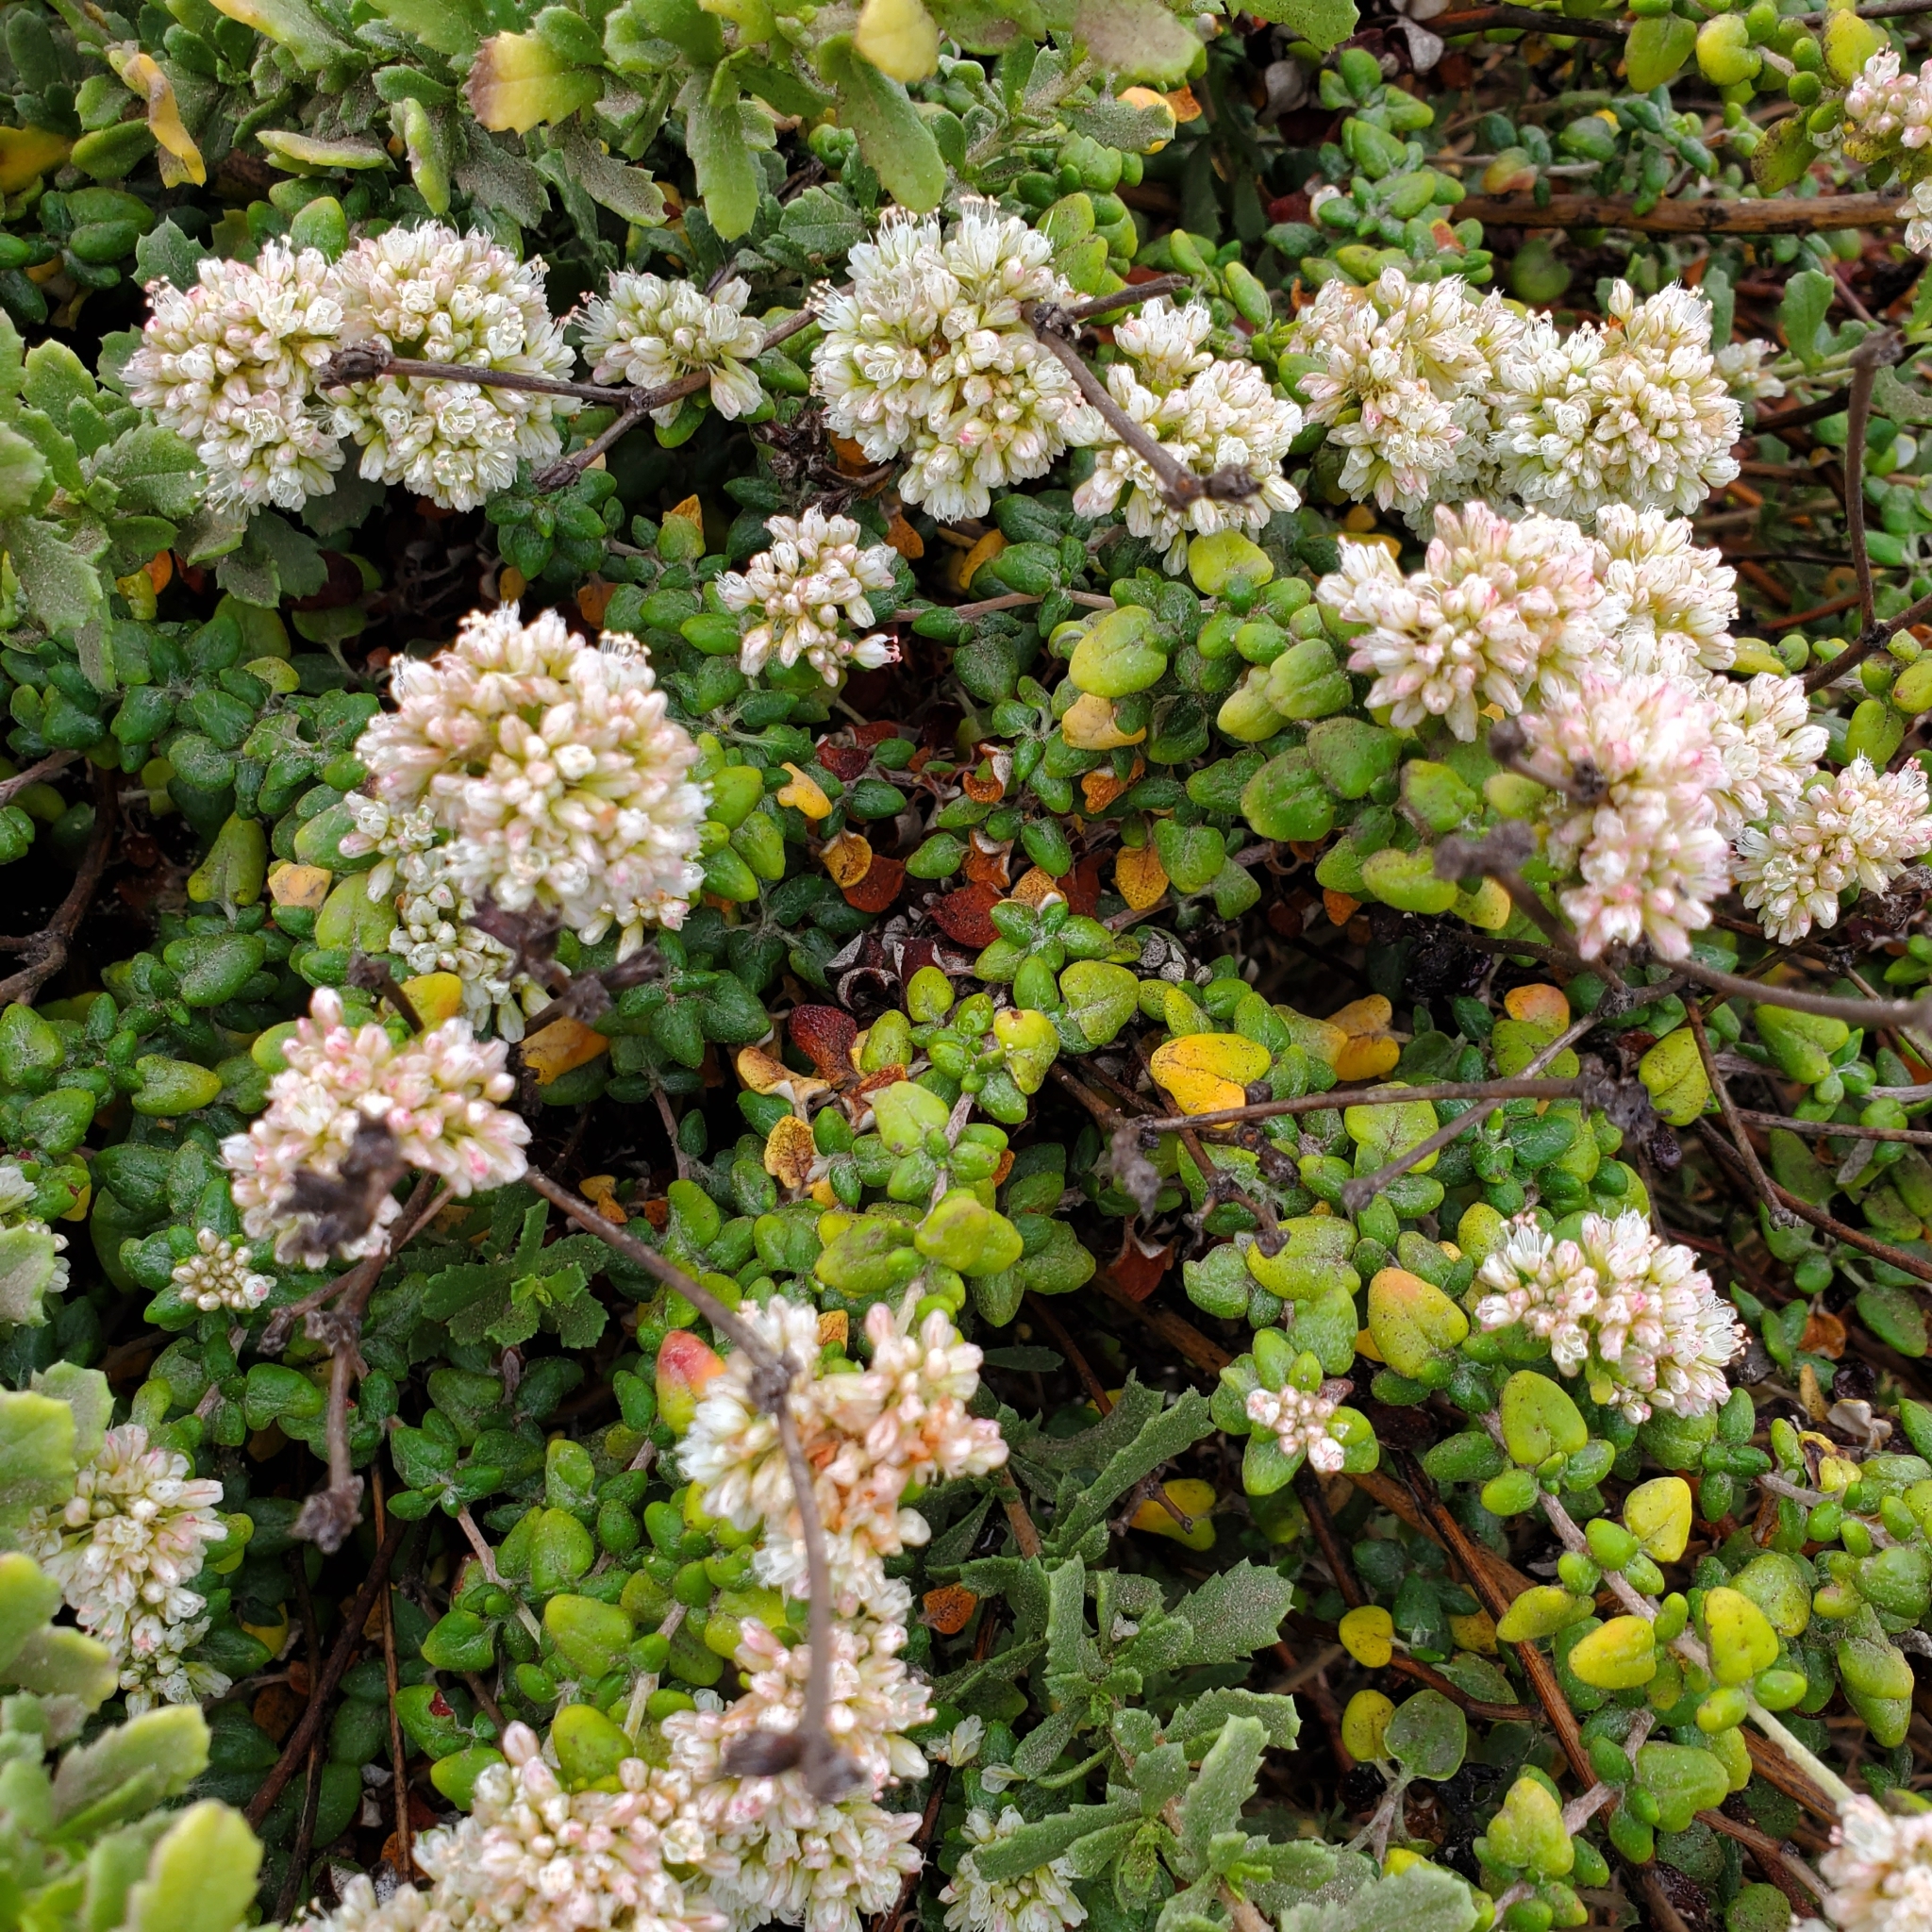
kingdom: Plantae
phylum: Tracheophyta
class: Magnoliopsida
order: Caryophyllales
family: Polygonaceae
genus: Eriogonum
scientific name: Eriogonum parvifolium
